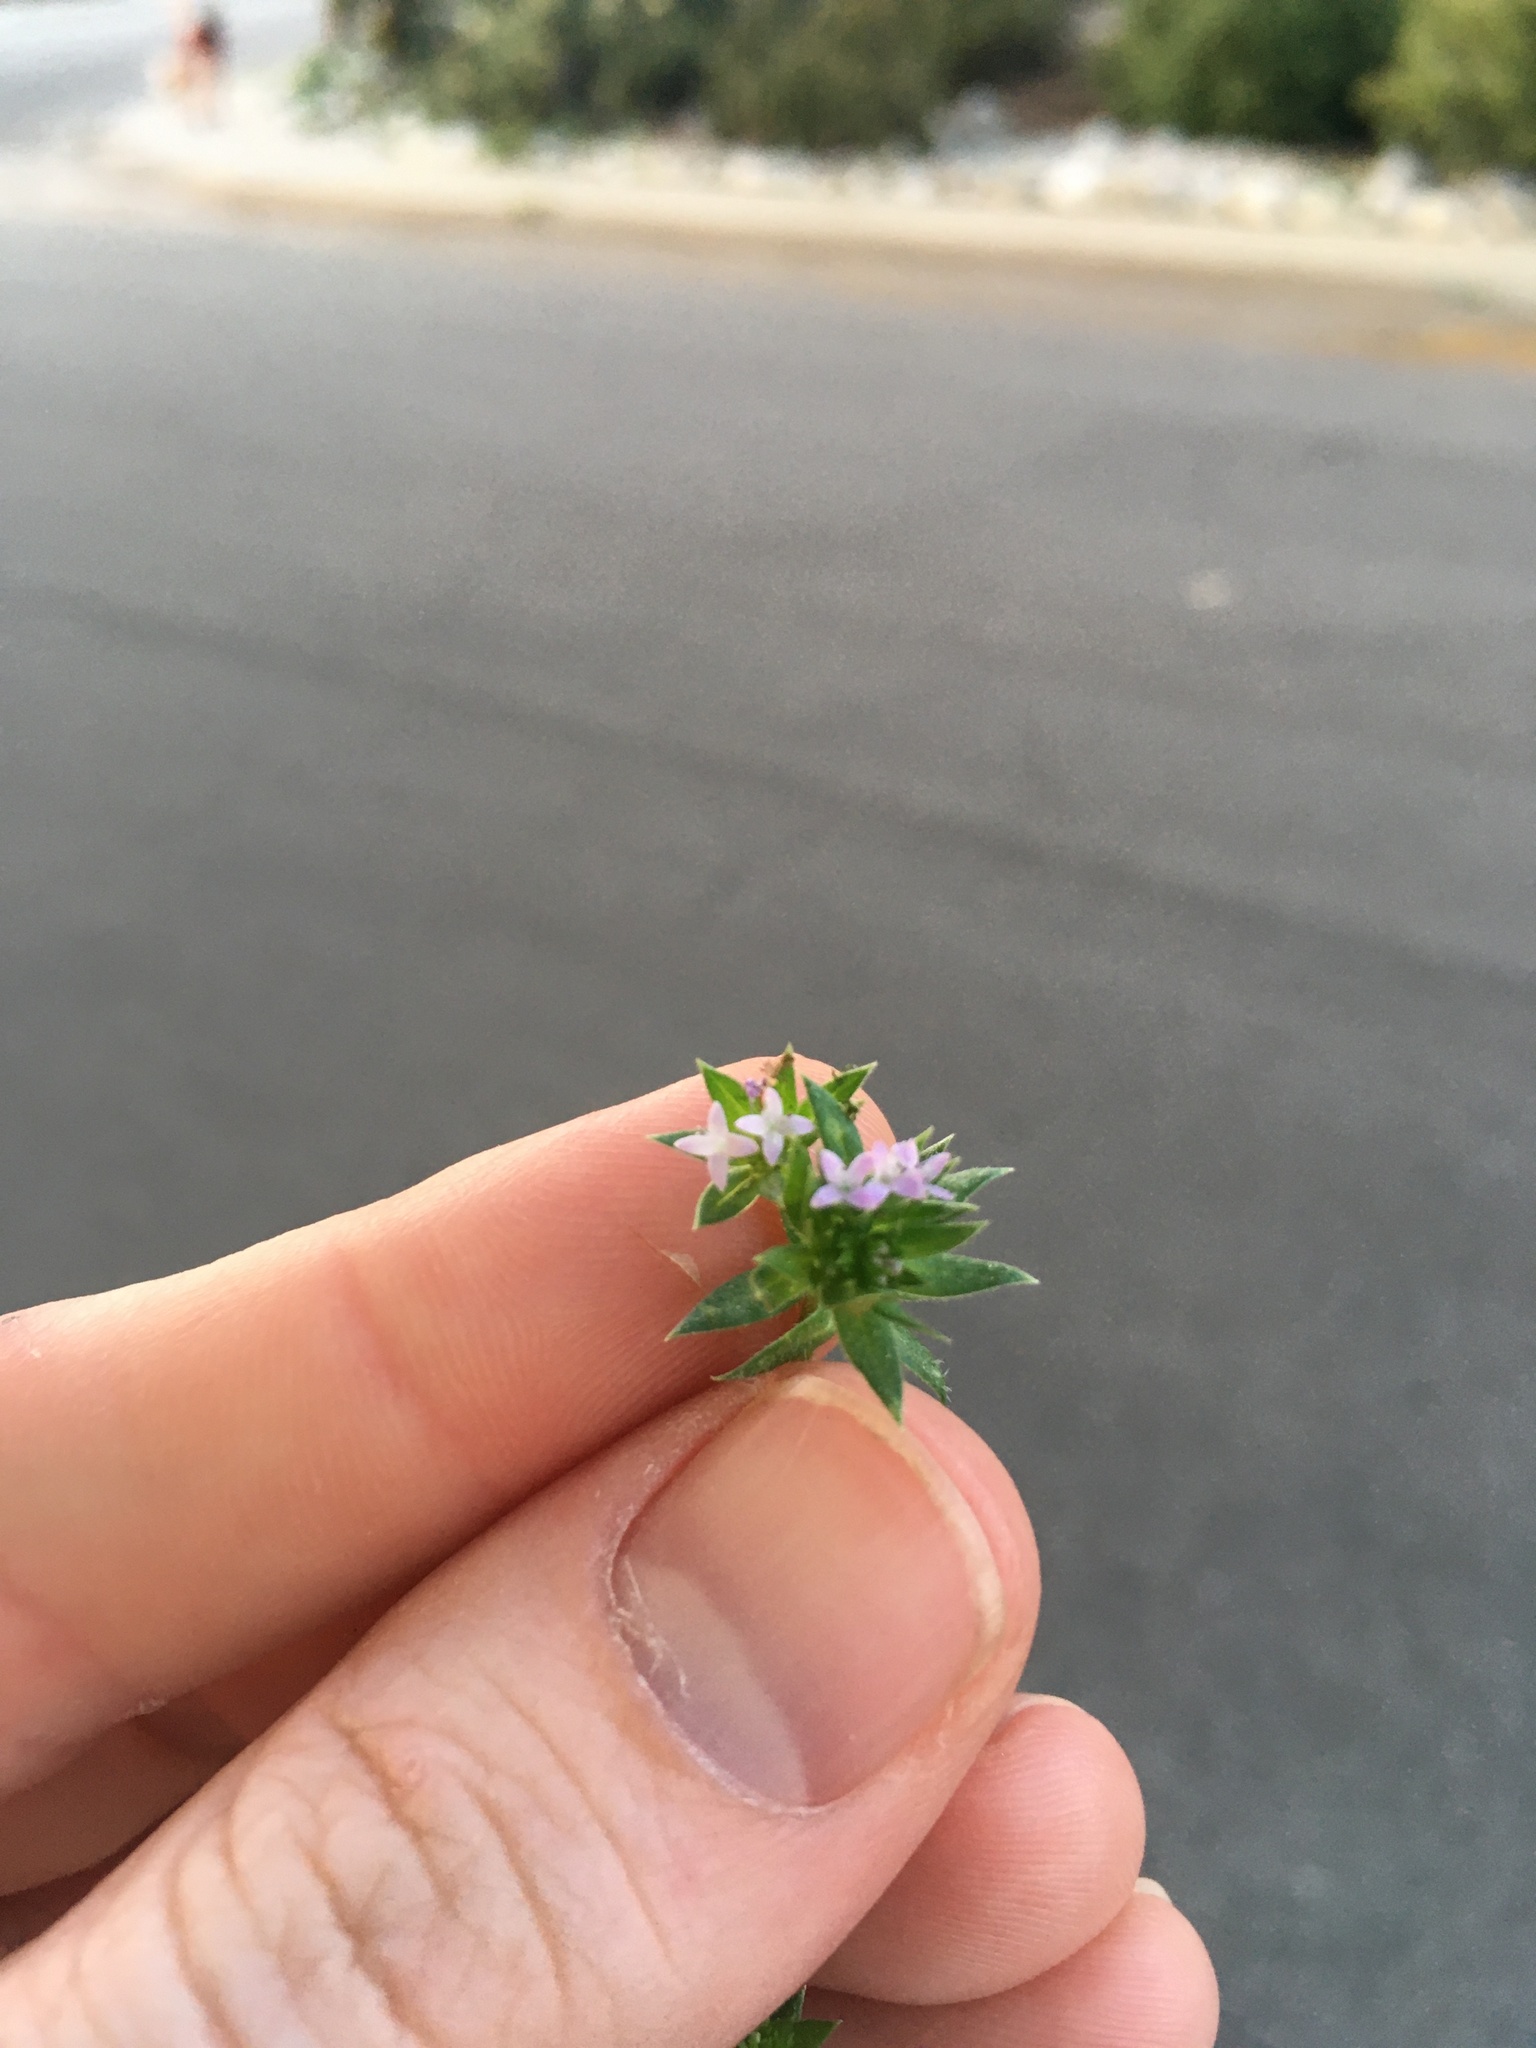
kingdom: Plantae
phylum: Tracheophyta
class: Magnoliopsida
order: Gentianales
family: Rubiaceae
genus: Sherardia
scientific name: Sherardia arvensis
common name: Field madder
